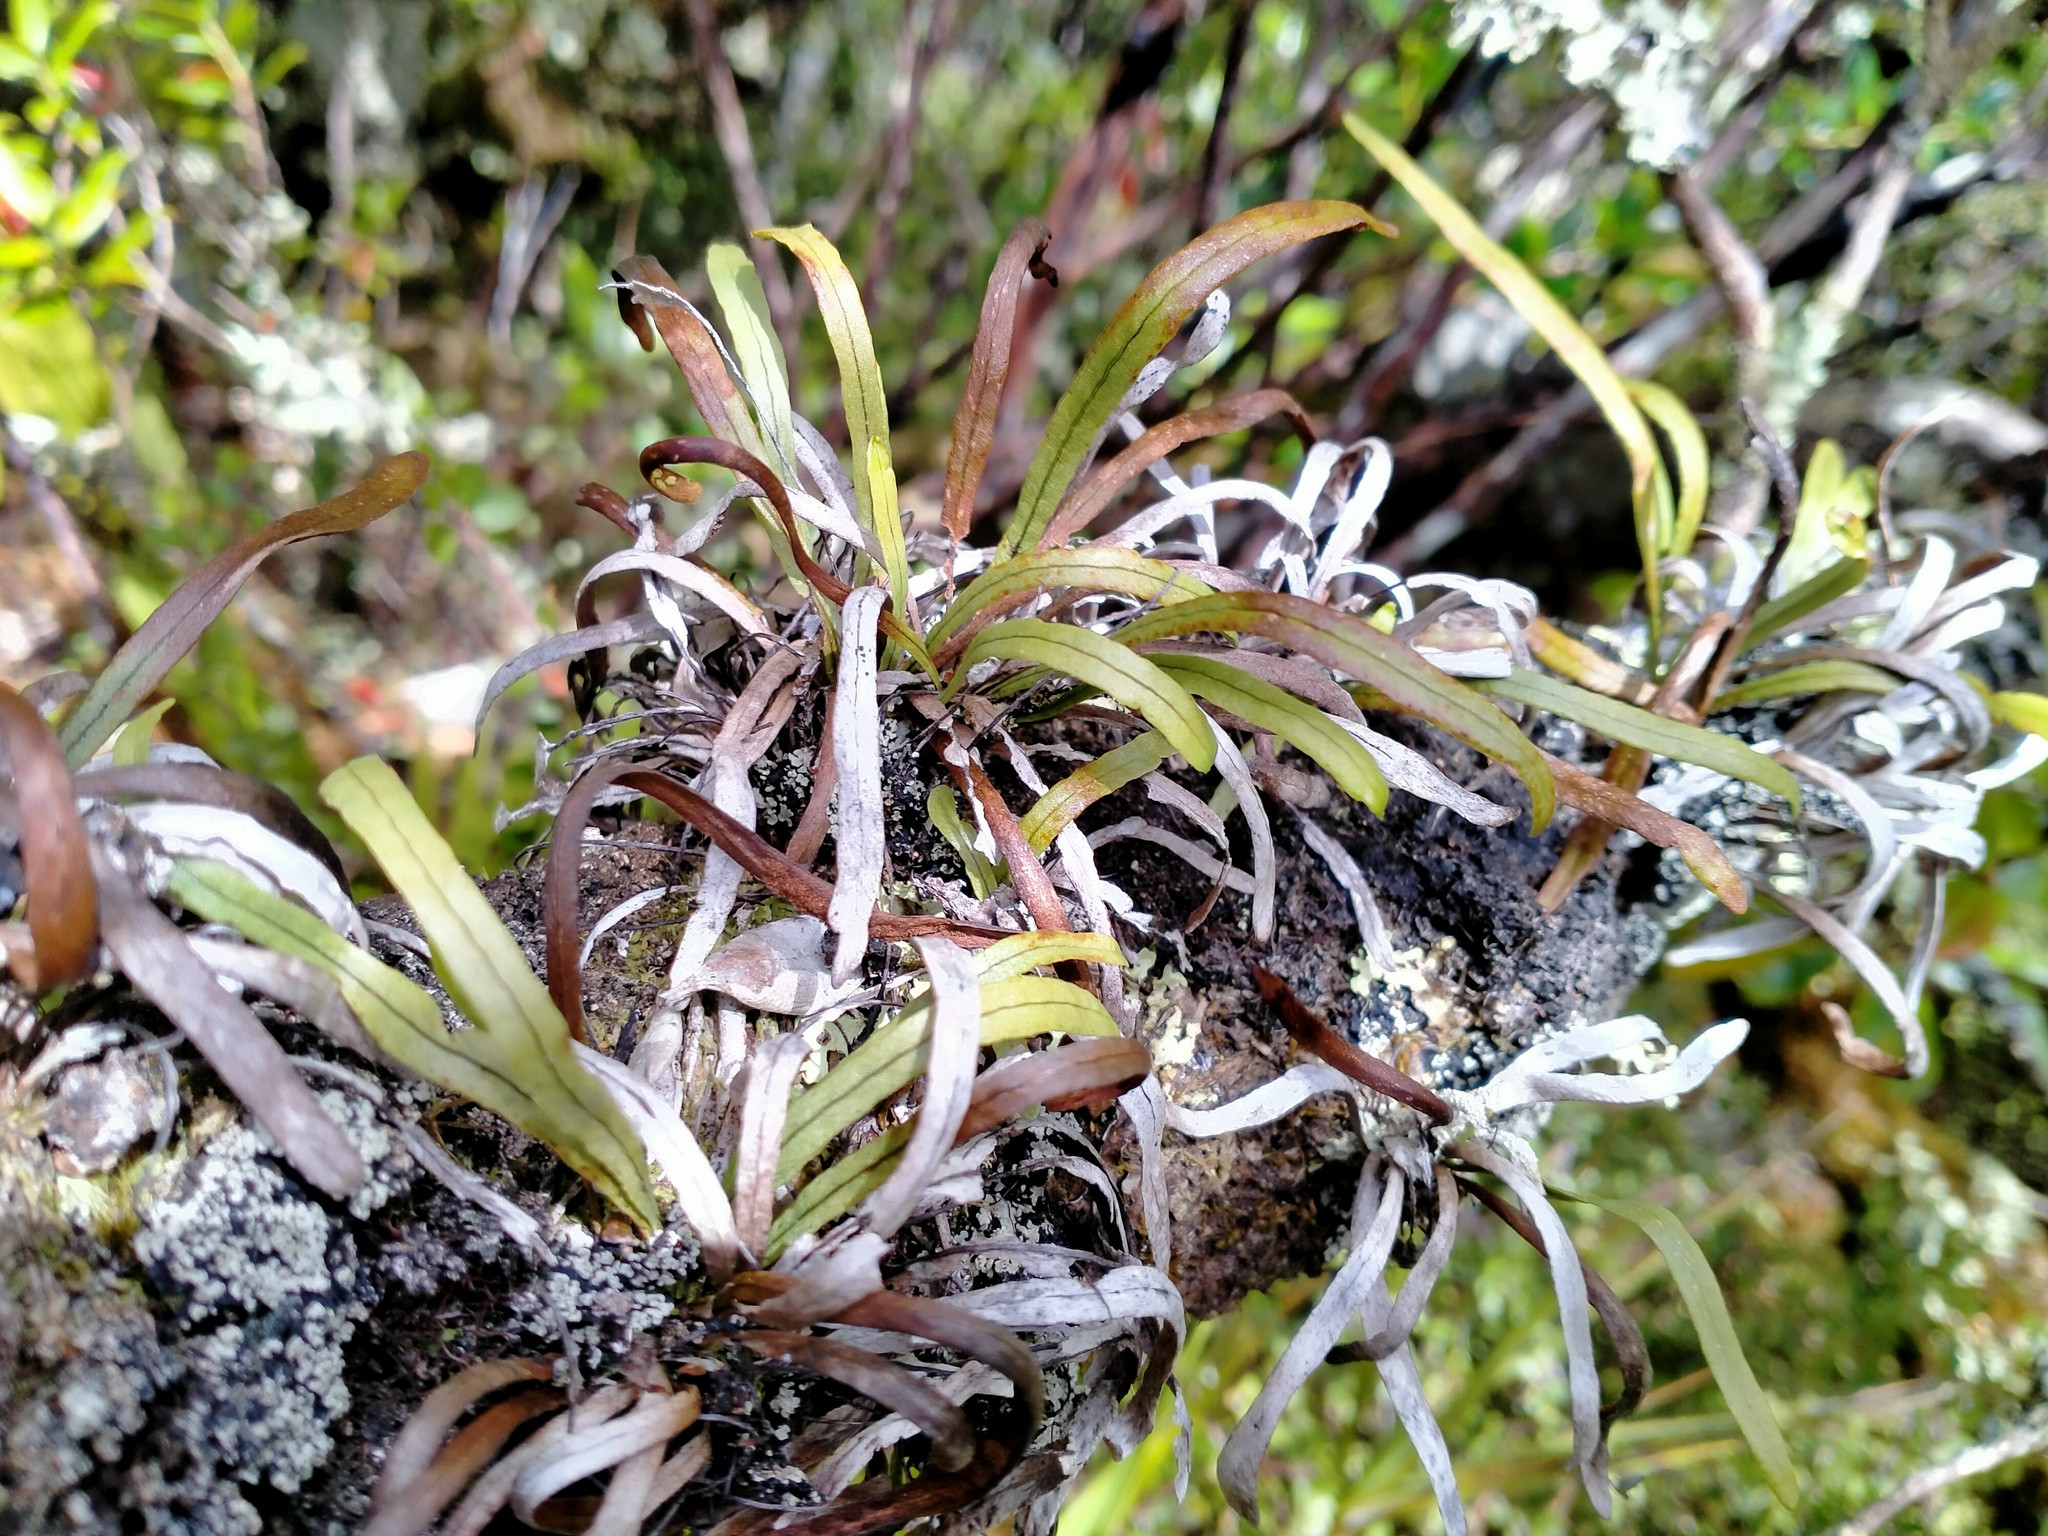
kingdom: Plantae
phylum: Tracheophyta
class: Polypodiopsida
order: Polypodiales
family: Polypodiaceae
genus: Notogrammitis
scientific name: Notogrammitis angustifolia
